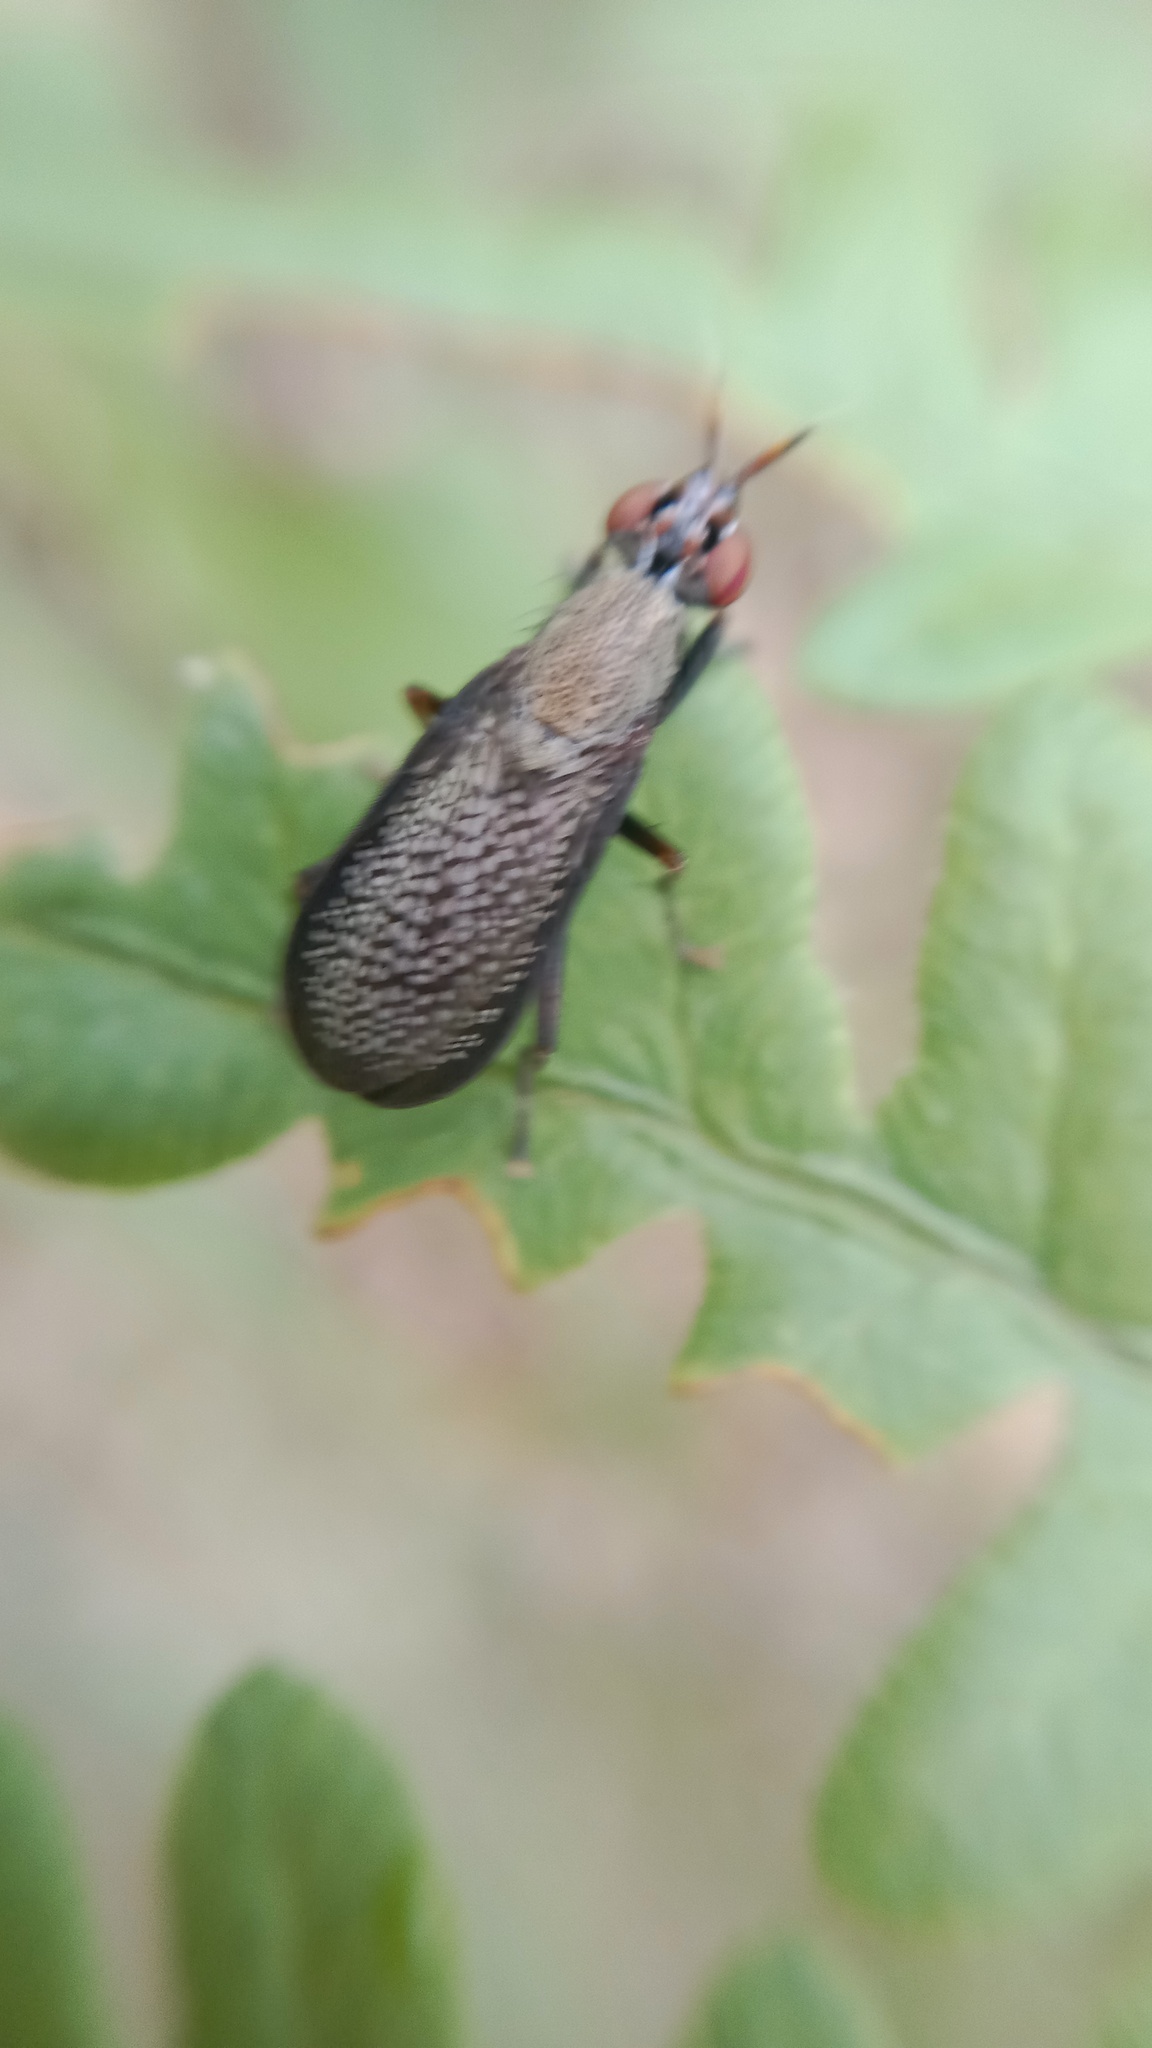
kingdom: Animalia
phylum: Arthropoda
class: Insecta
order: Diptera
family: Sciomyzidae
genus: Coremacera
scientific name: Coremacera marginata
